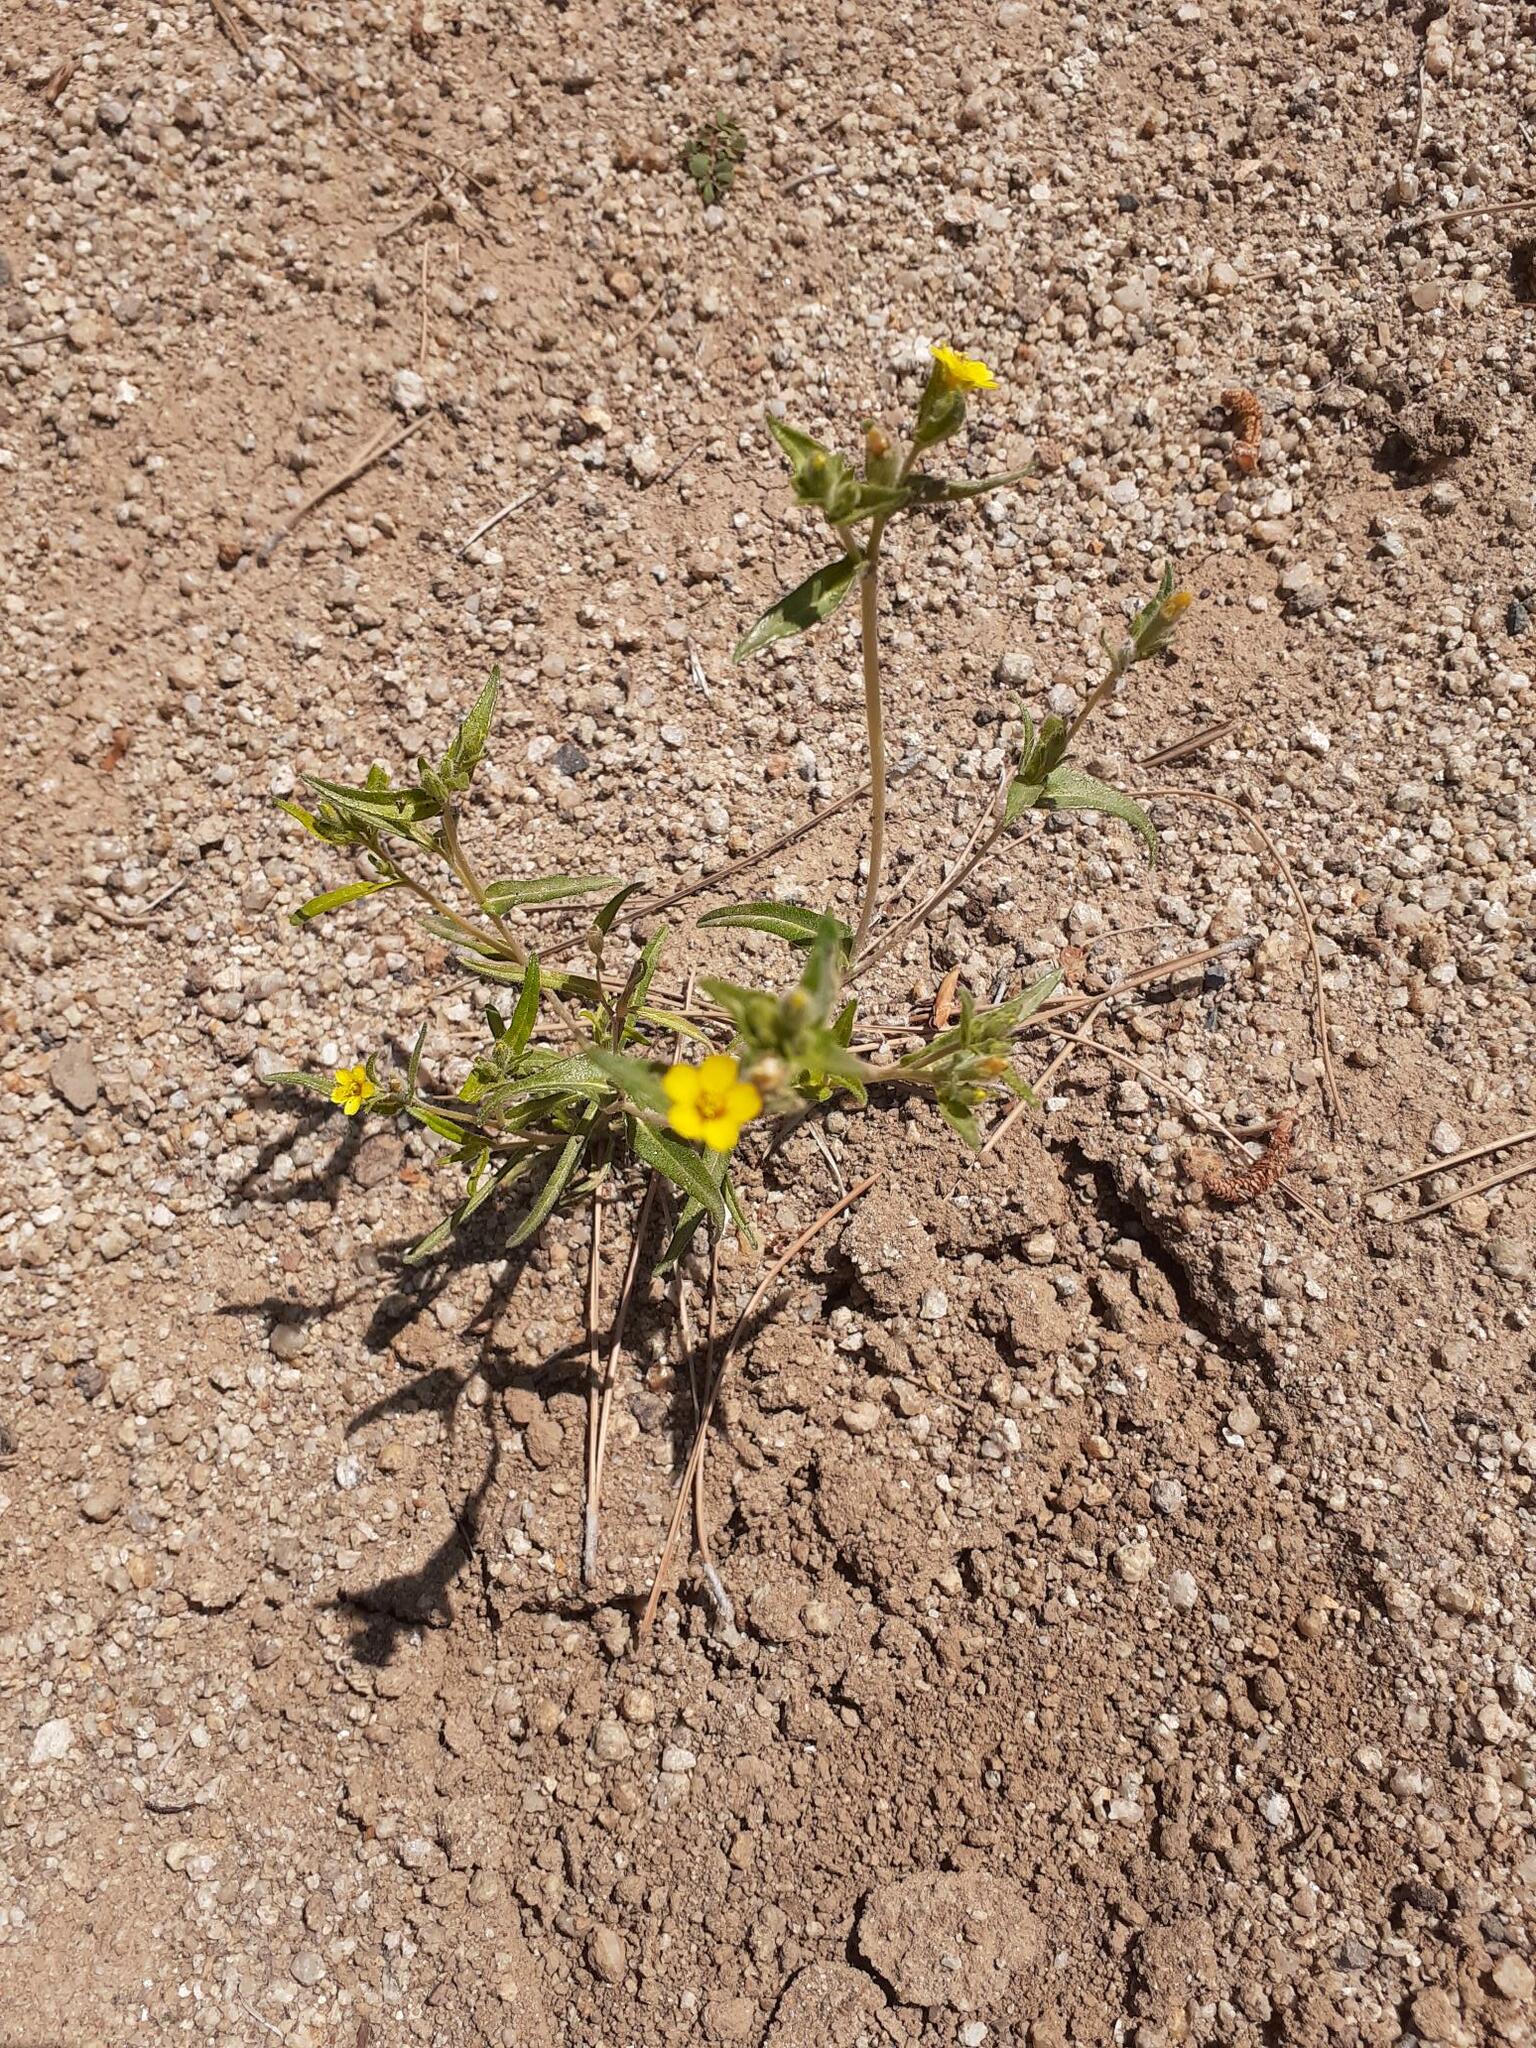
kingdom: Plantae
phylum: Tracheophyta
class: Magnoliopsida
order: Cornales
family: Loasaceae
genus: Mentzelia
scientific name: Mentzelia albicaulis
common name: White-stem blazingstar
